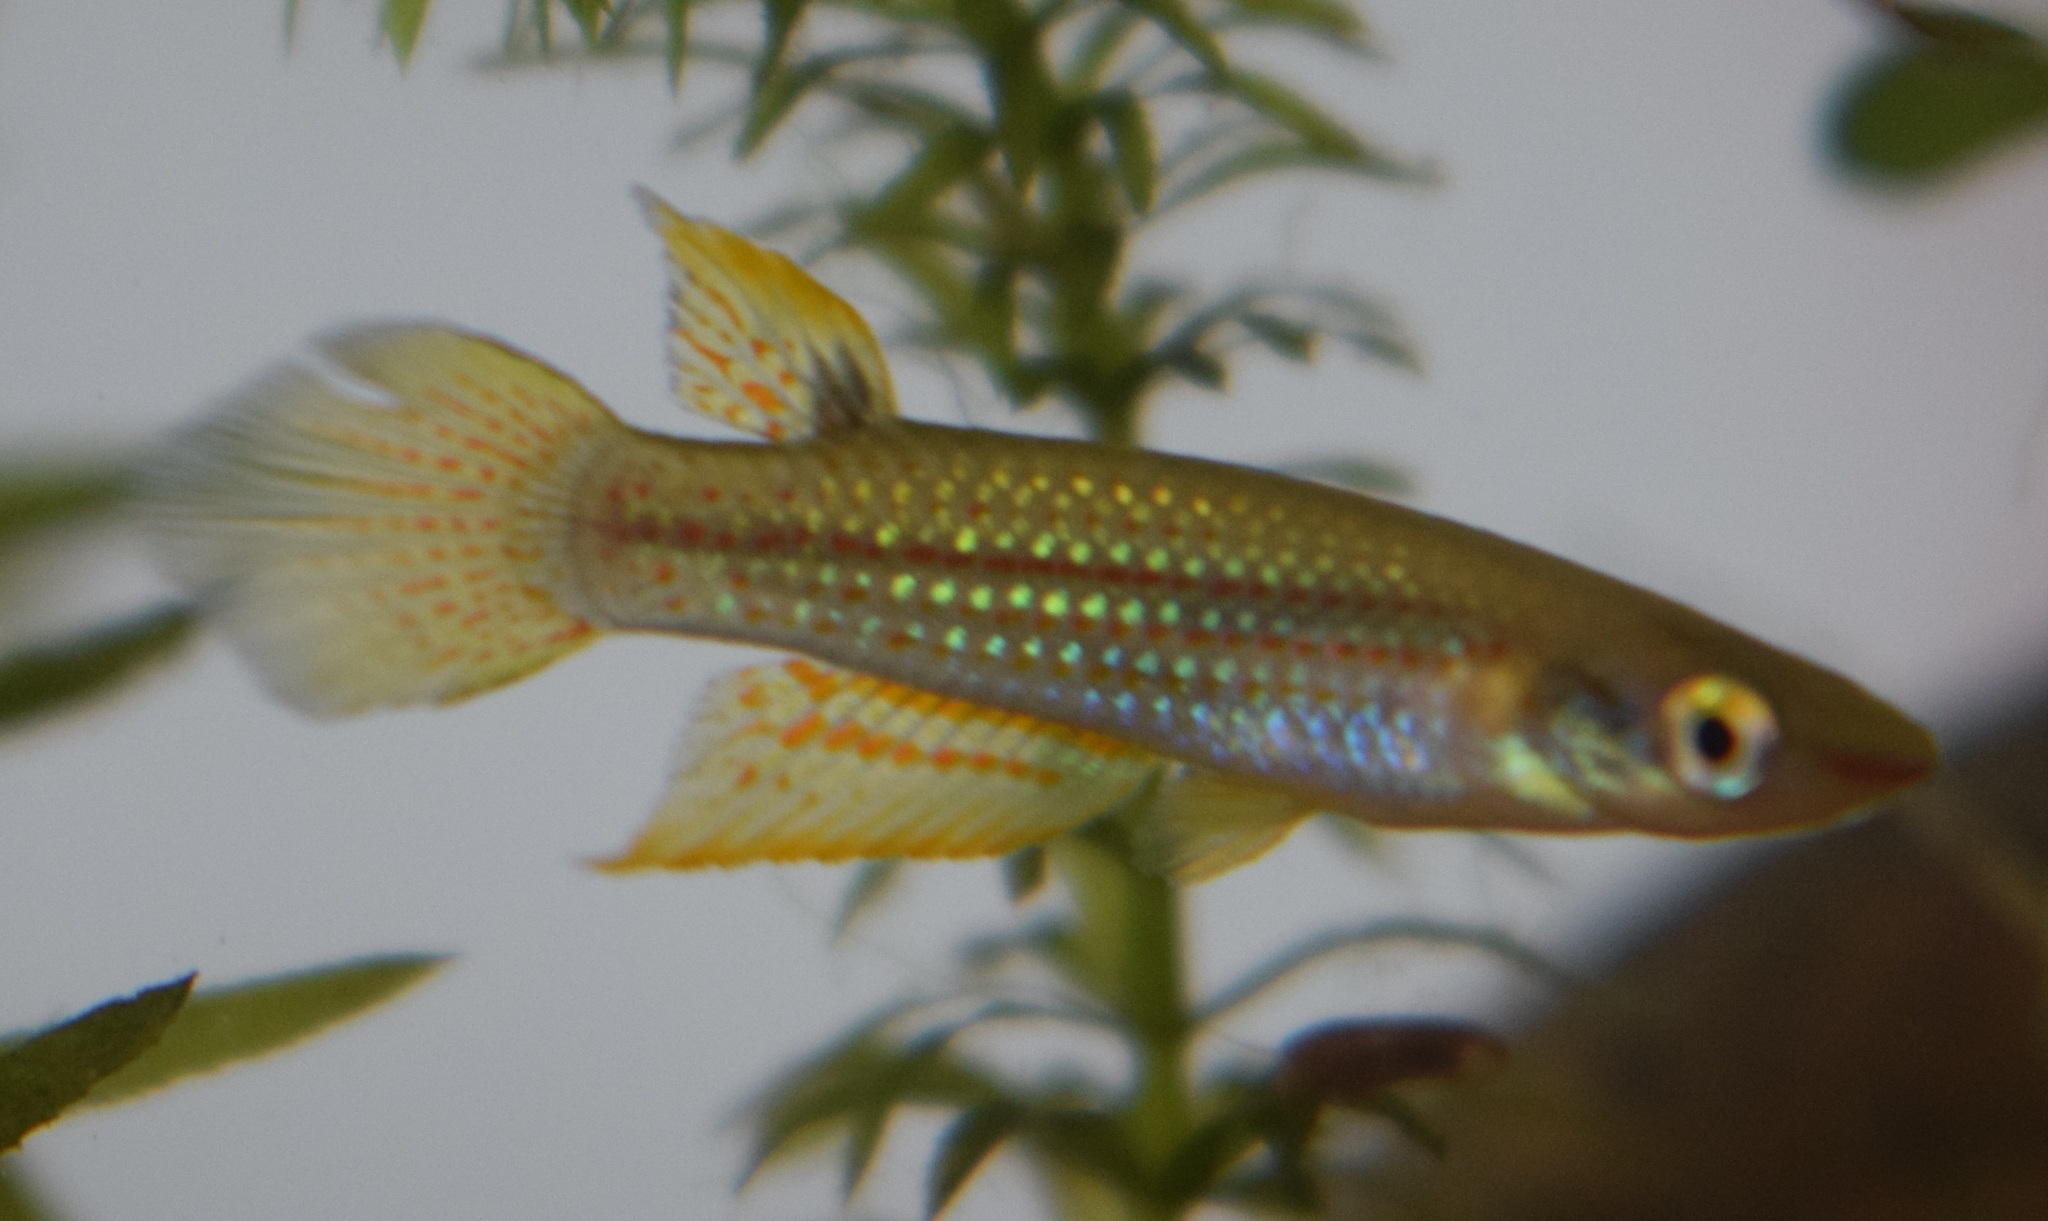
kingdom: Animalia
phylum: Chordata
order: Cyprinodontiformes
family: Aplocheilidae
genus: Aplocheilus
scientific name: Aplocheilus lineatus
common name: Striped panchax
